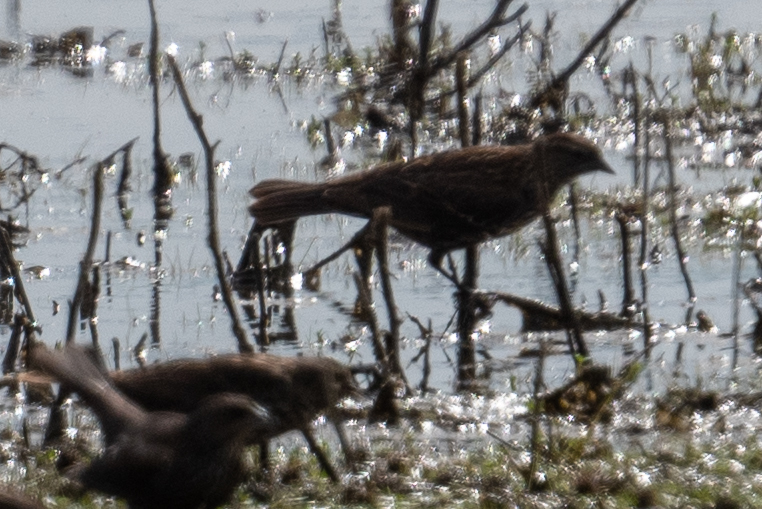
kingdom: Animalia
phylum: Chordata
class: Aves
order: Passeriformes
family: Icteridae
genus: Agelaius
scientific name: Agelaius
